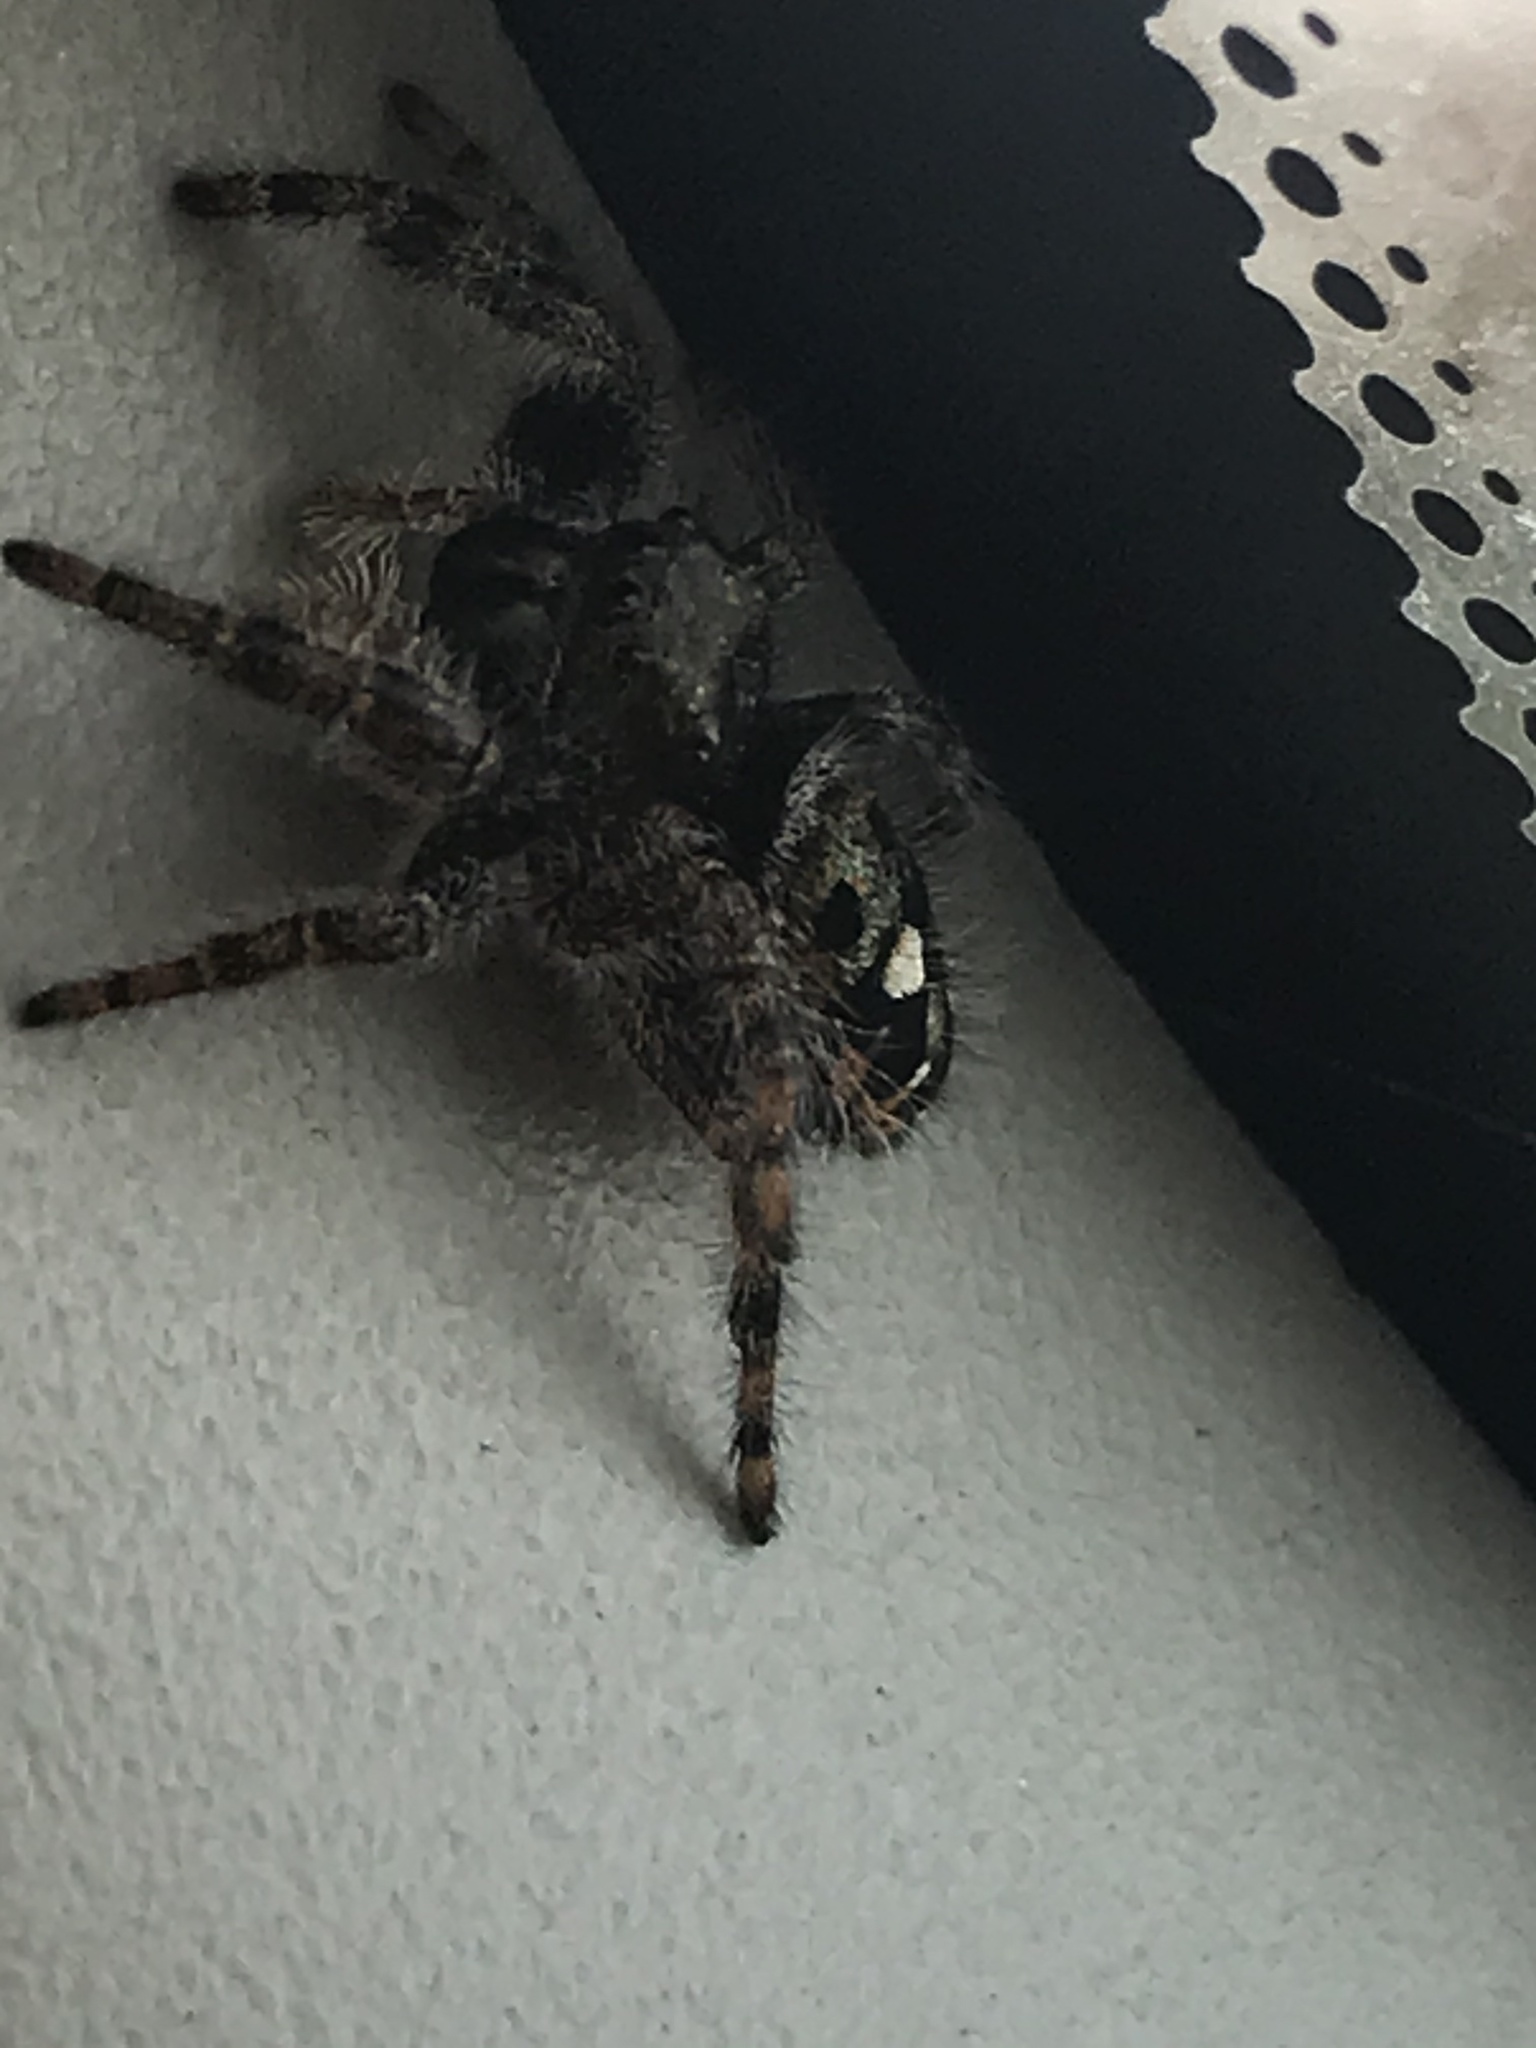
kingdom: Animalia
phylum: Arthropoda
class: Arachnida
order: Araneae
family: Salticidae
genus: Phidippus
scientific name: Phidippus audax
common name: Bold jumper
